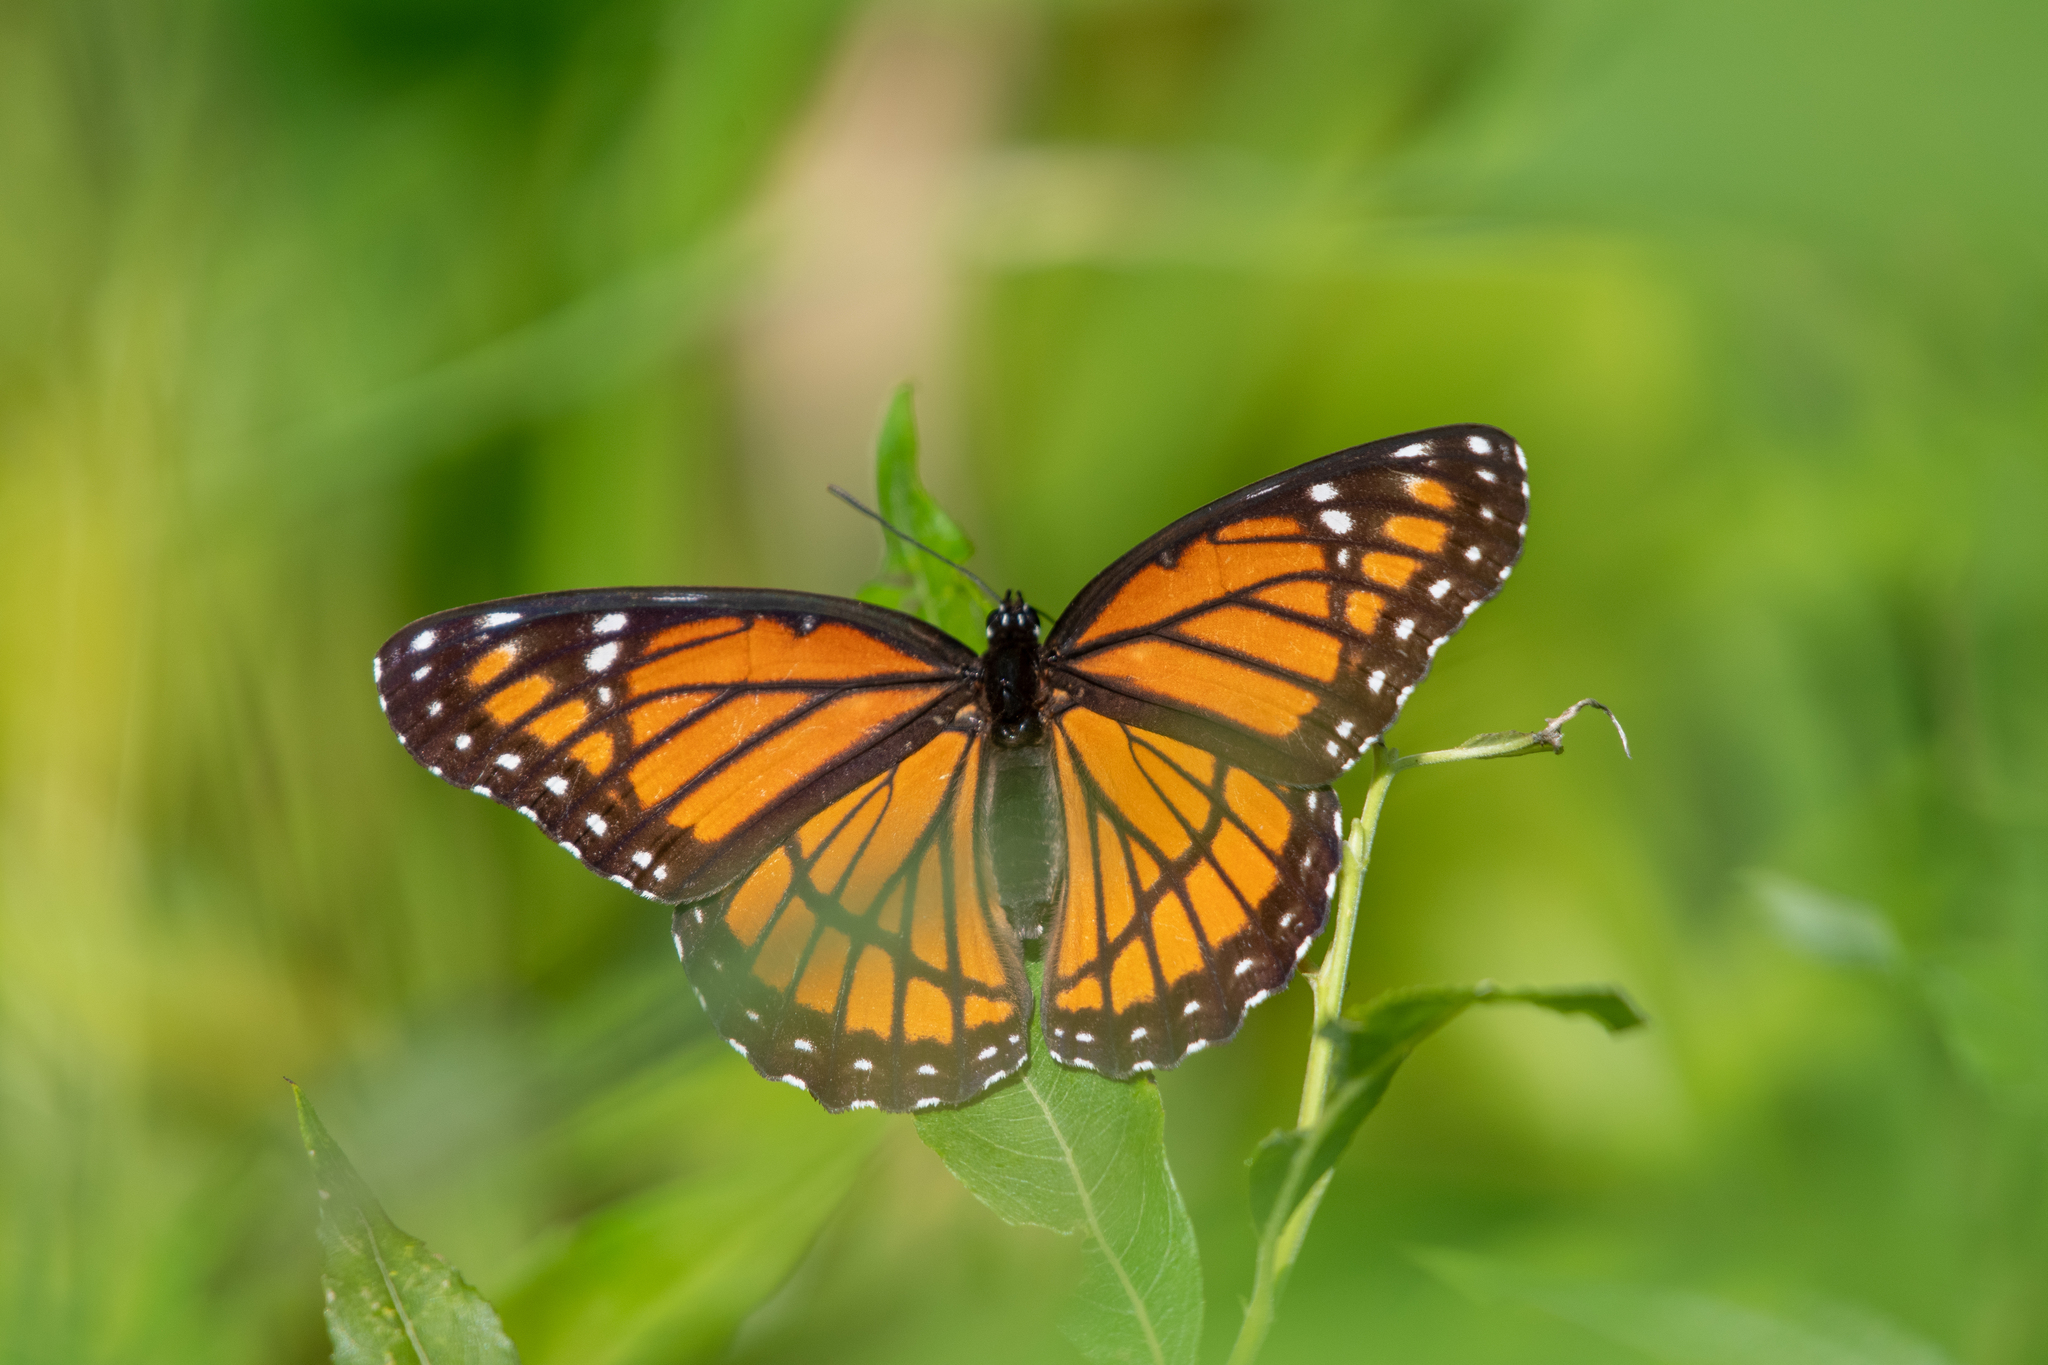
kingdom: Animalia
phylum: Arthropoda
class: Insecta
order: Lepidoptera
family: Nymphalidae
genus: Limenitis
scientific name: Limenitis archippus
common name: Viceroy
